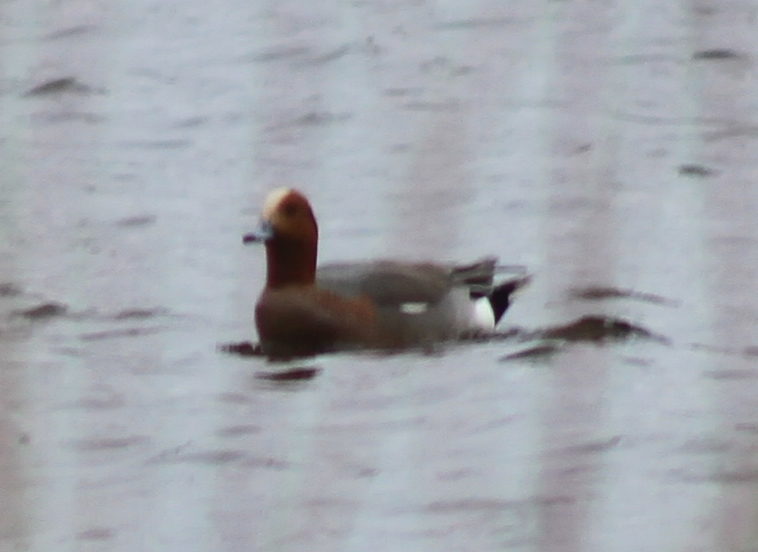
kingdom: Animalia
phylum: Chordata
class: Aves
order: Anseriformes
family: Anatidae
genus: Mareca
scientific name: Mareca penelope
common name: Eurasian wigeon
